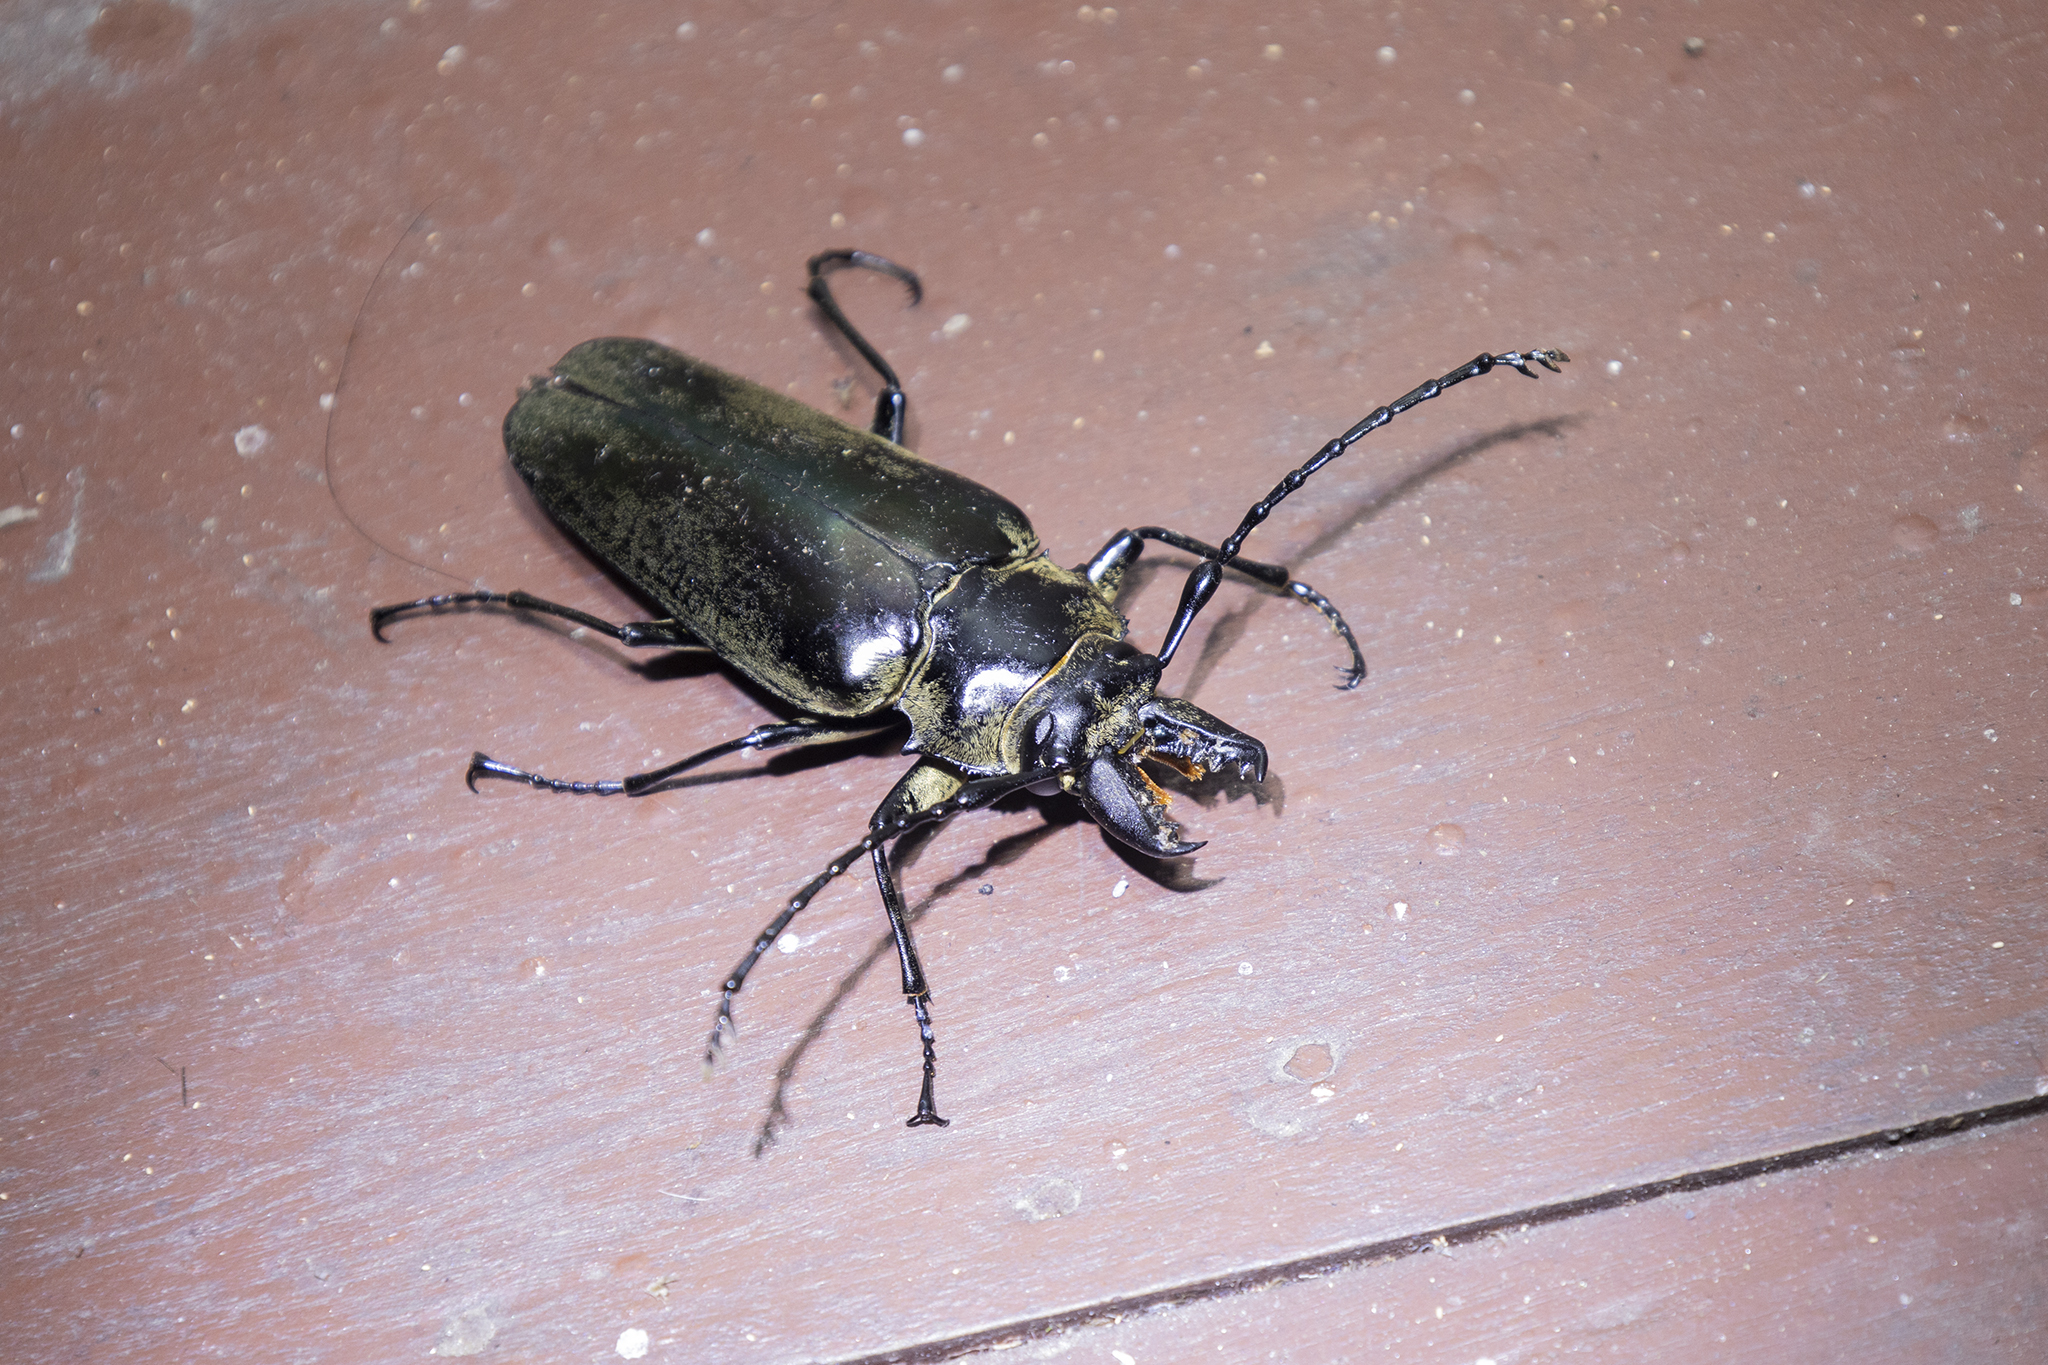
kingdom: Animalia
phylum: Arthropoda
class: Insecta
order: Coleoptera
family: Trictenotomidae
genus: Autocrates
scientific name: Autocrates
